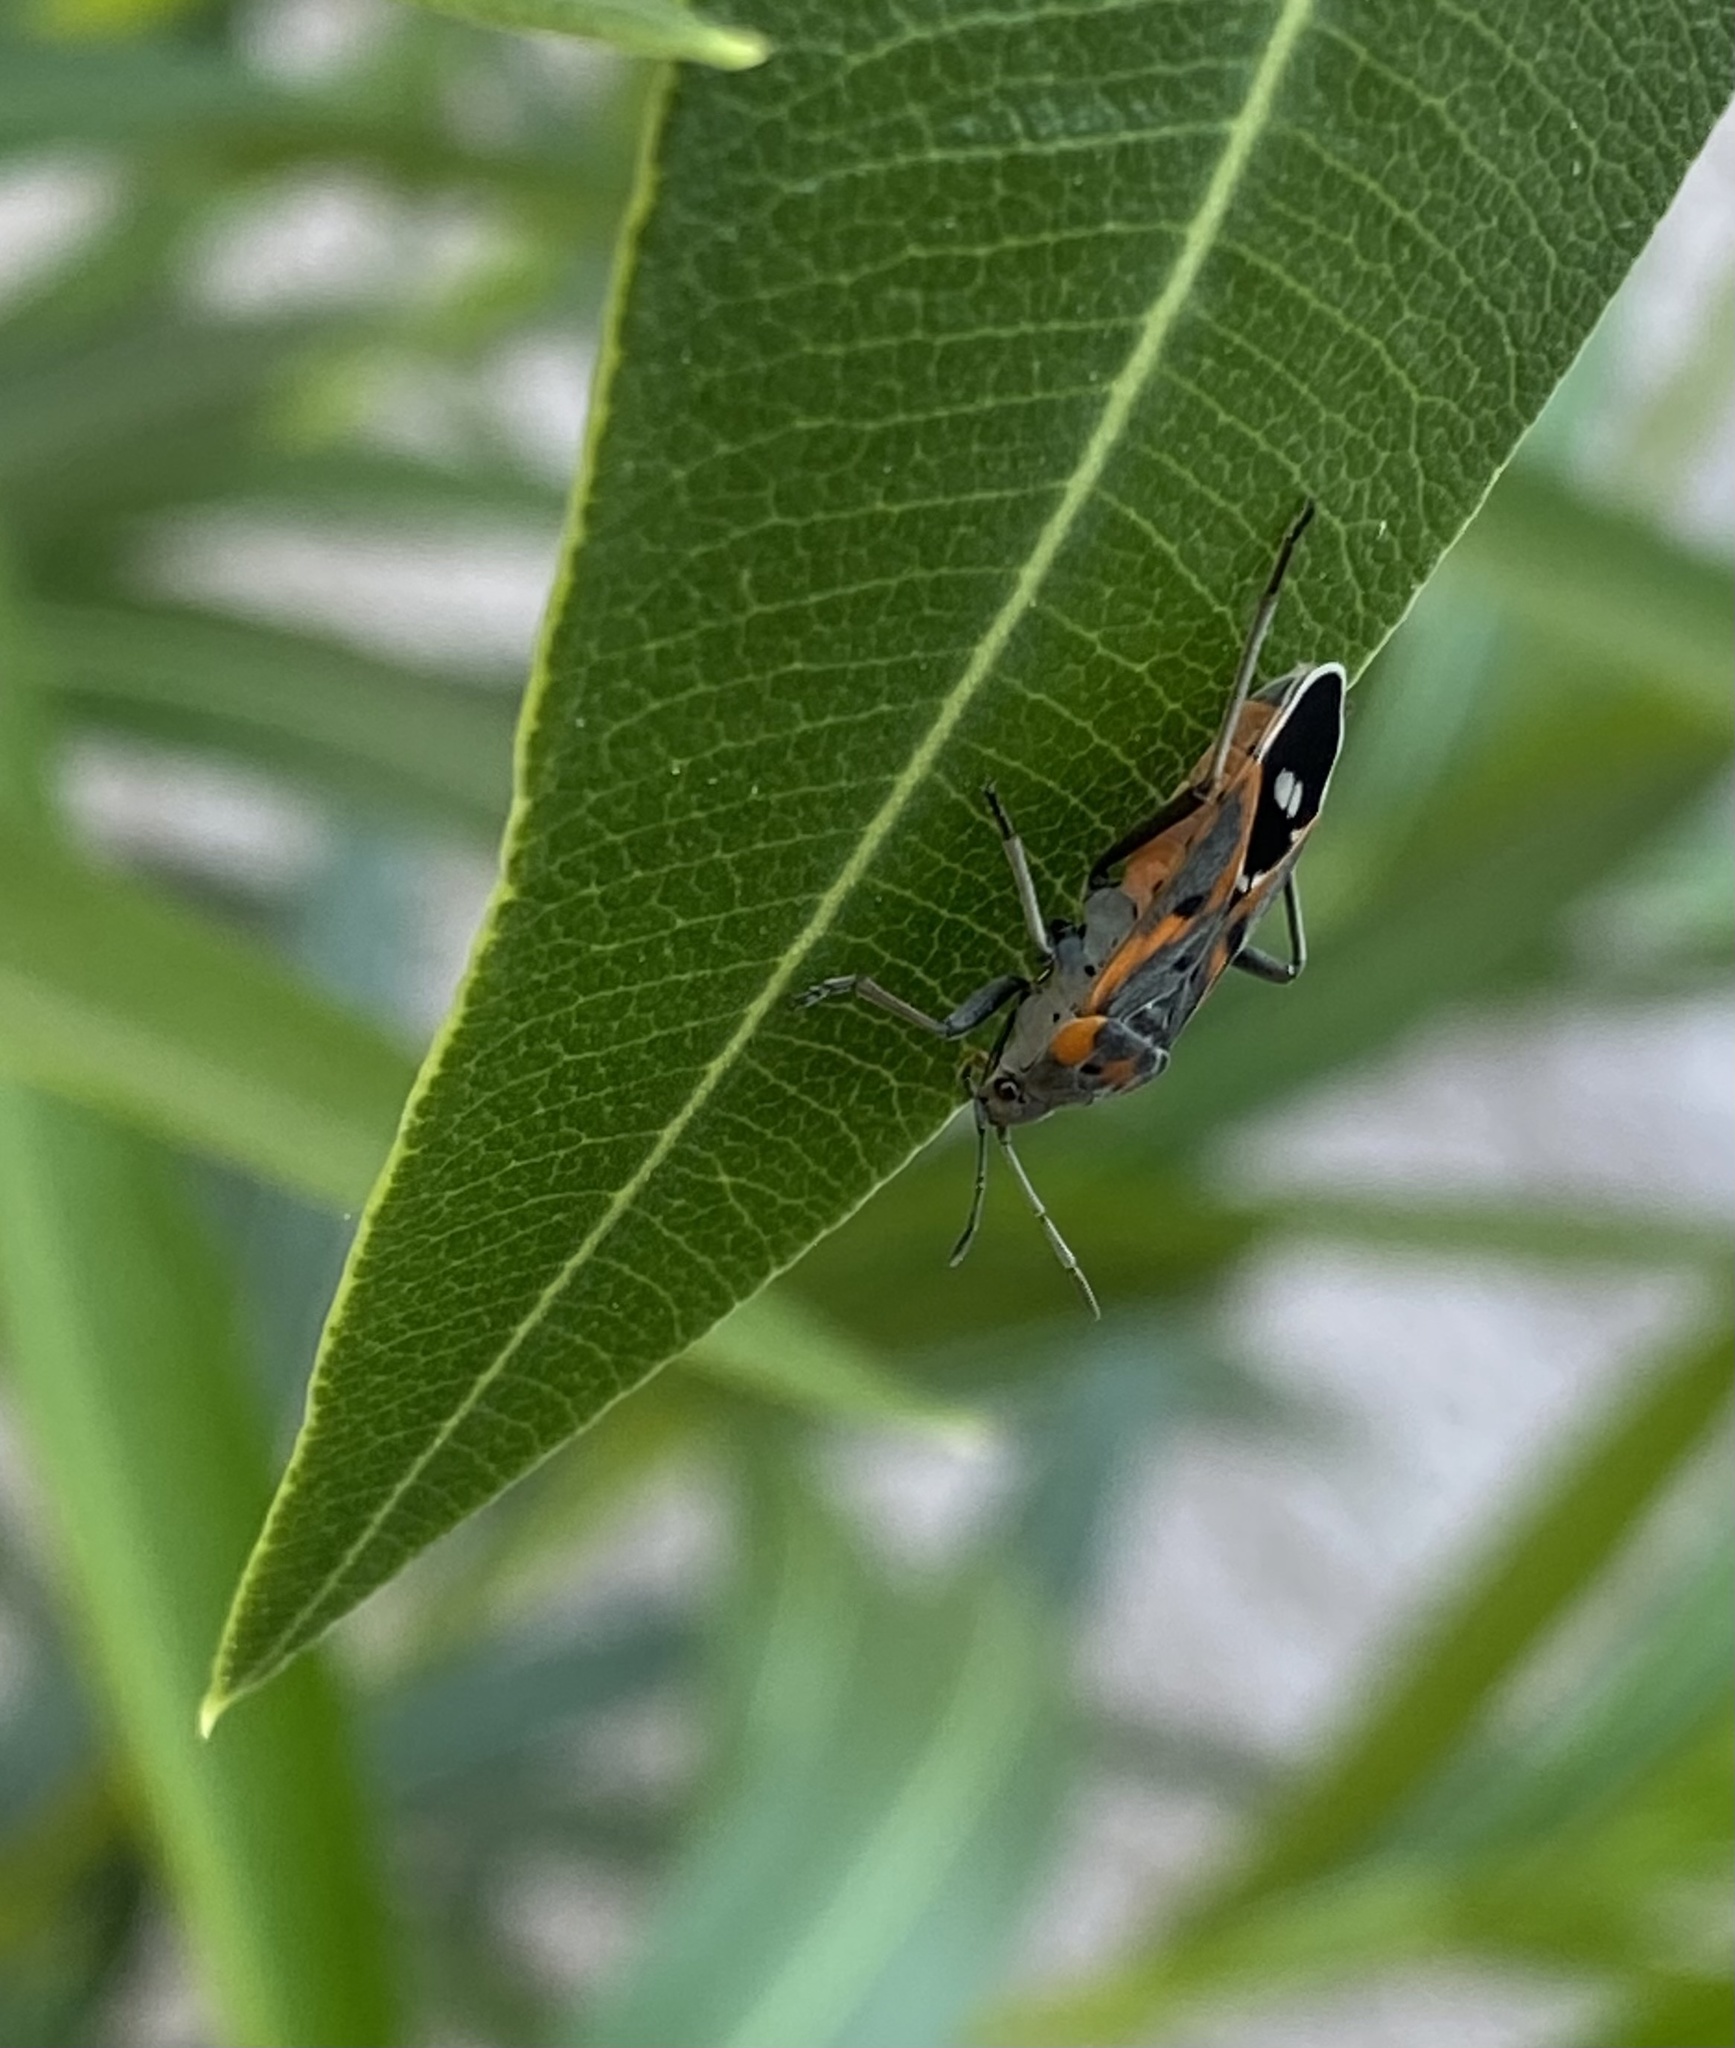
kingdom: Animalia
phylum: Arthropoda
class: Insecta
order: Hemiptera
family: Lygaeidae
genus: Lygaeus
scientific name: Lygaeus kalmii
